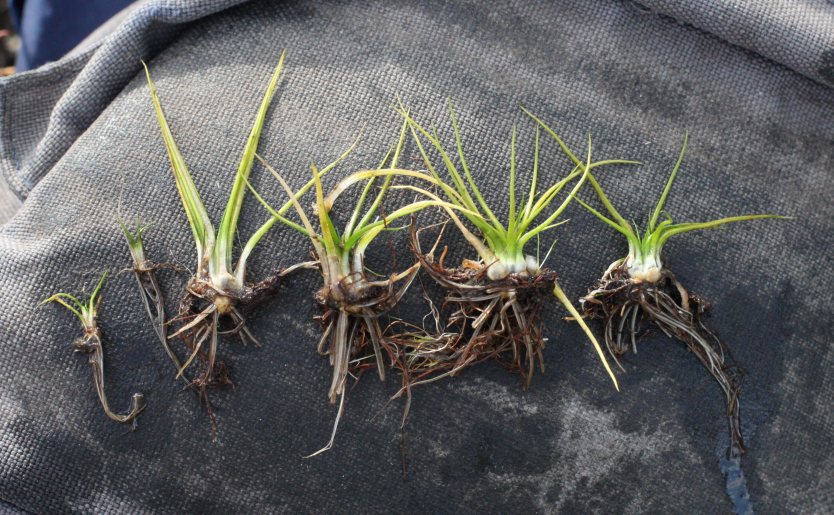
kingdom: Plantae
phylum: Tracheophyta
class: Lycopodiopsida
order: Isoetales
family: Isoetaceae
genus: Isoetes
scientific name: Isoetes echinospora
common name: Spring quillwort
